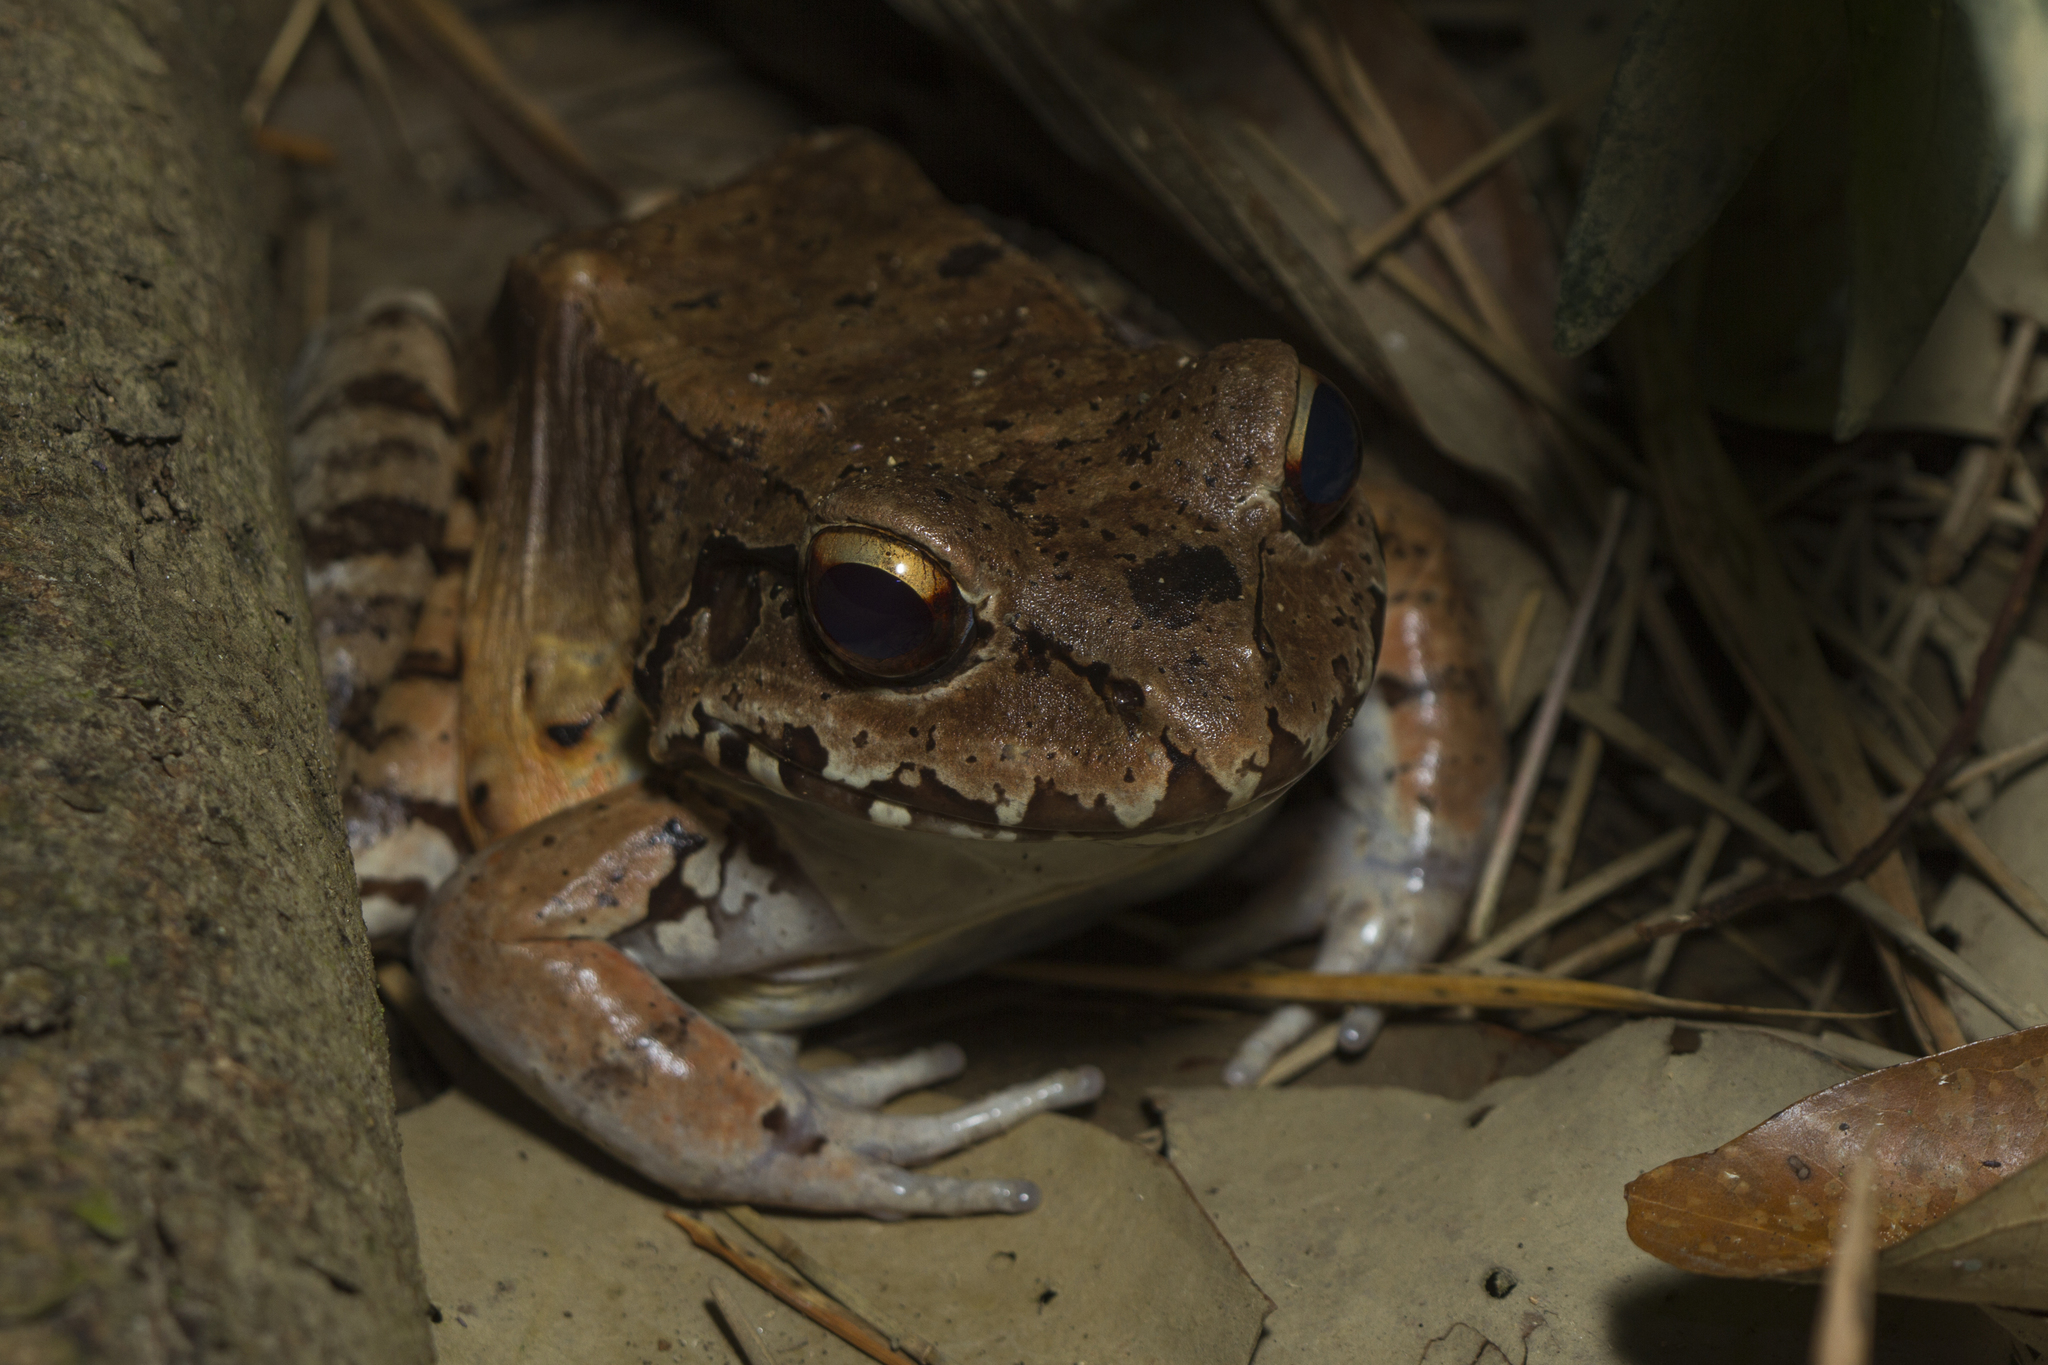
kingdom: Animalia
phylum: Chordata
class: Amphibia
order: Anura
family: Leptodactylidae
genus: Leptodactylus
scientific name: Leptodactylus savagei
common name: Savage's thin-toed frog
